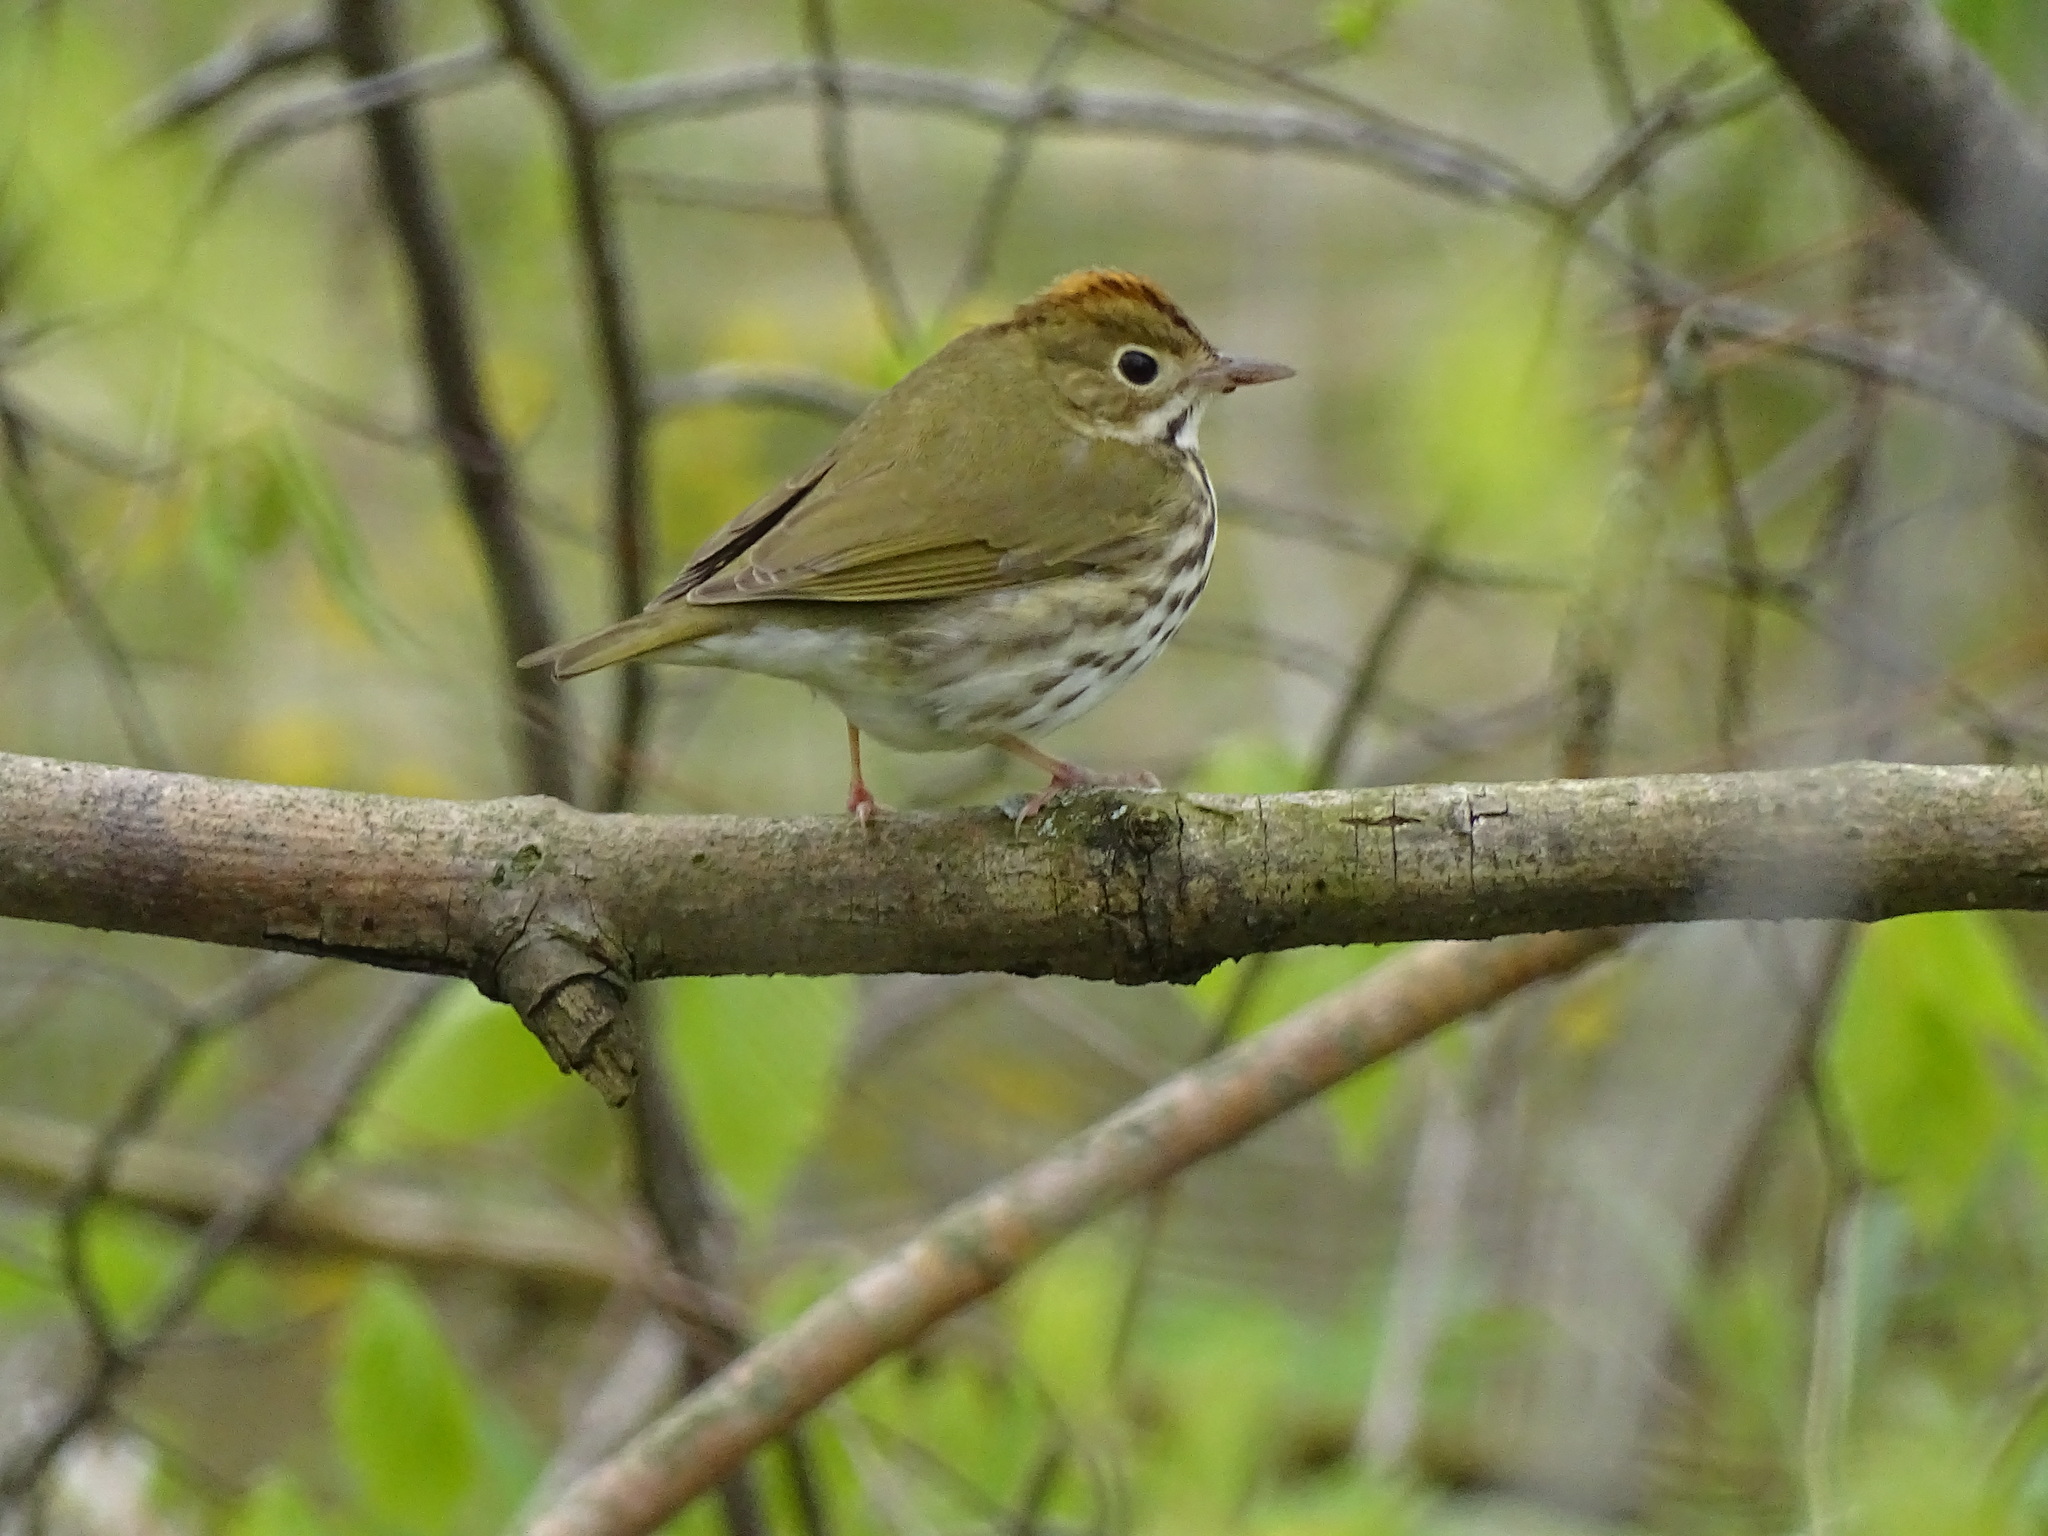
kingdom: Animalia
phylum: Chordata
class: Aves
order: Passeriformes
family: Parulidae
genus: Seiurus
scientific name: Seiurus aurocapilla
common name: Ovenbird
